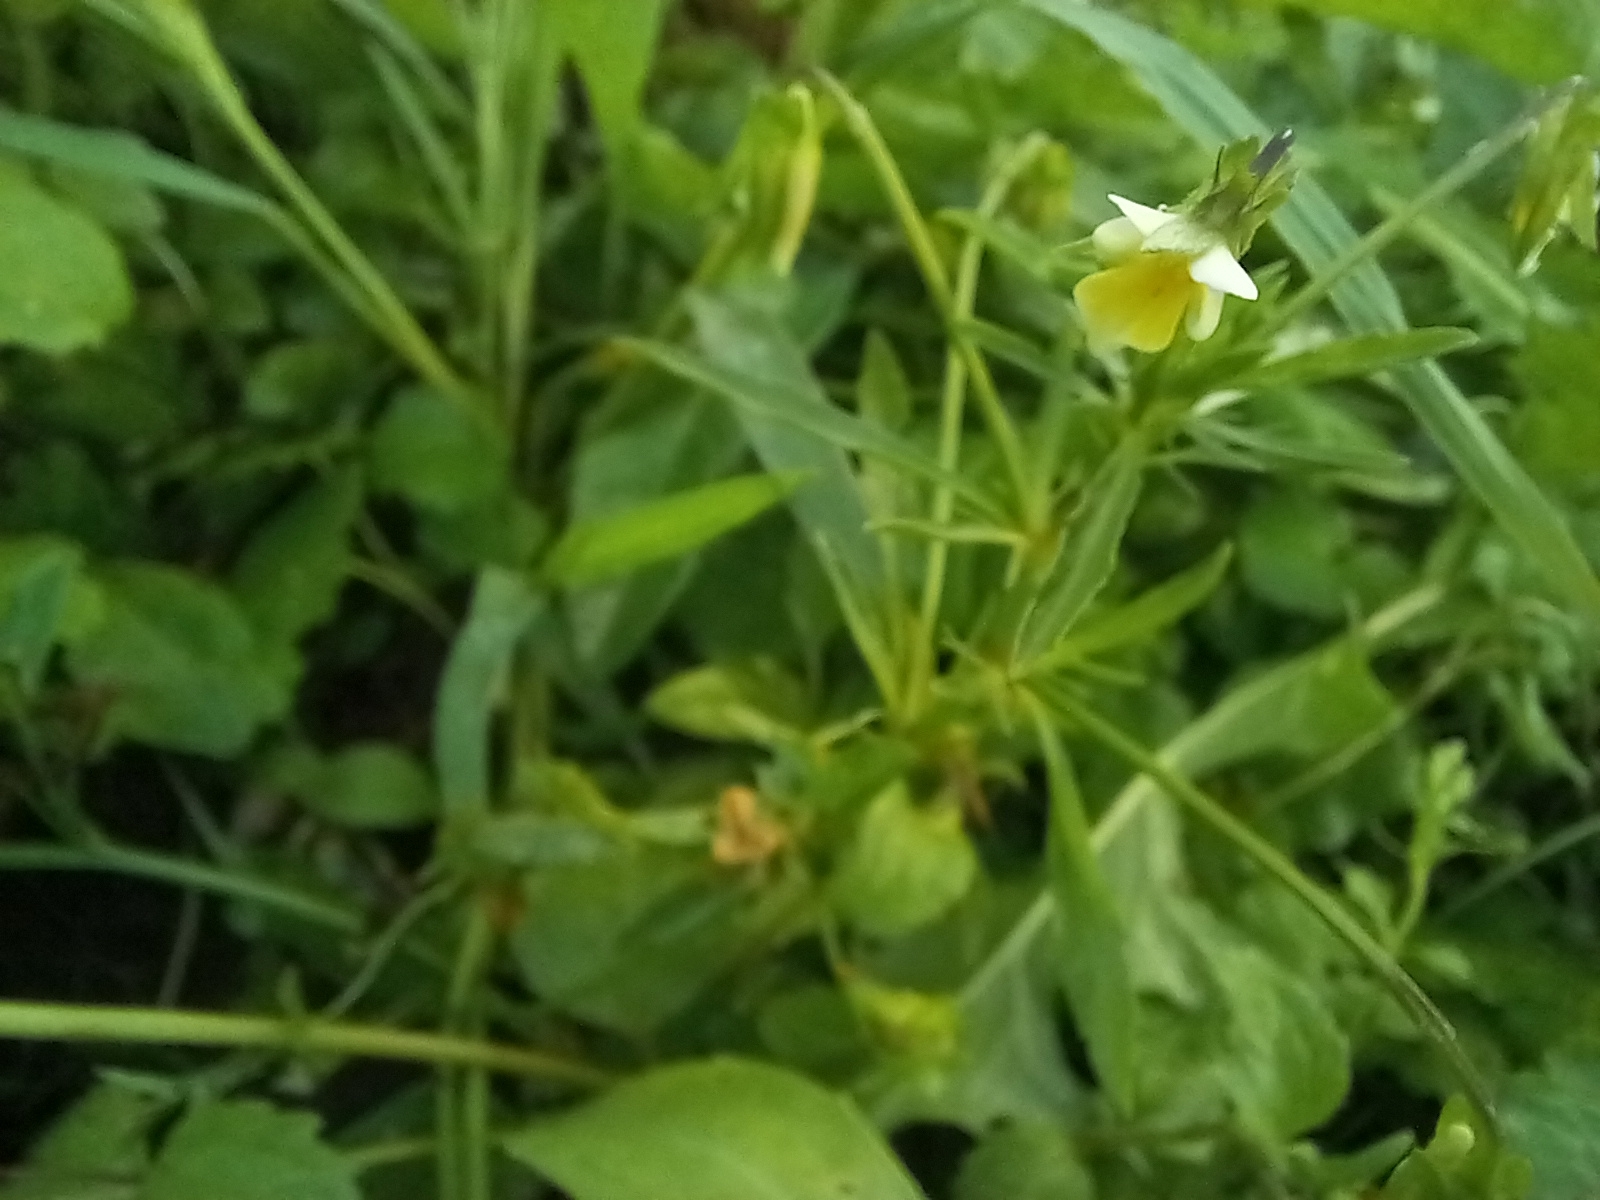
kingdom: Plantae
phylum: Tracheophyta
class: Magnoliopsida
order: Malpighiales
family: Violaceae
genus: Viola
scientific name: Viola arvensis
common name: Field pansy
